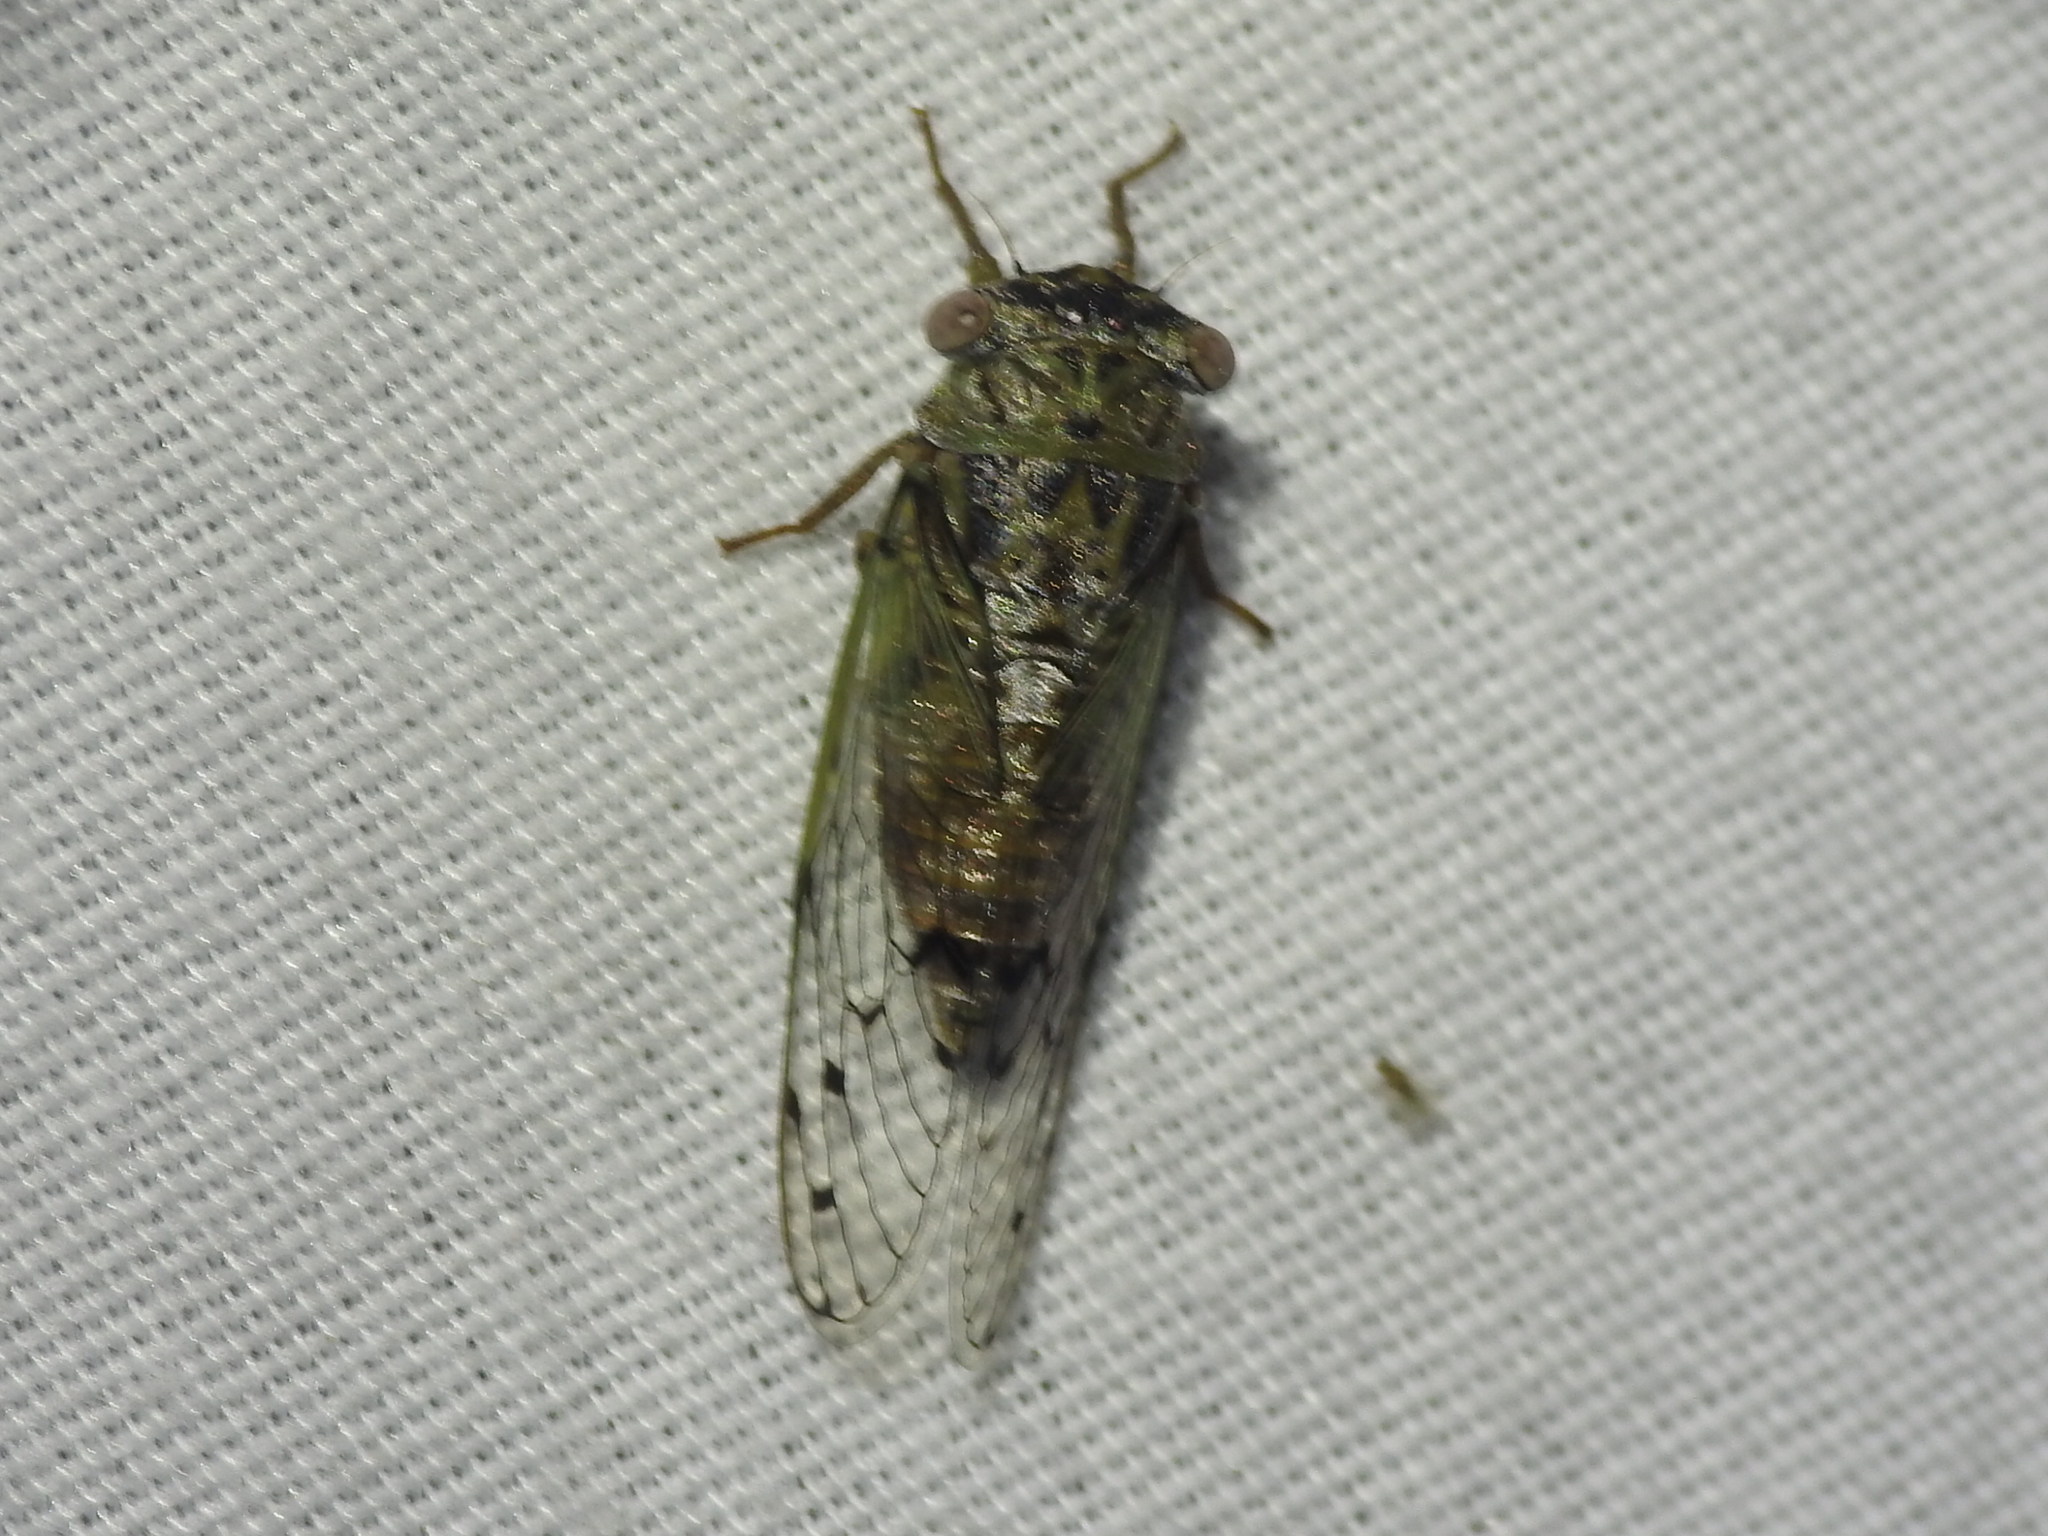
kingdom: Animalia
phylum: Arthropoda
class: Insecta
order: Hemiptera
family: Cicadidae
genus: Pacarina
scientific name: Pacarina puella
